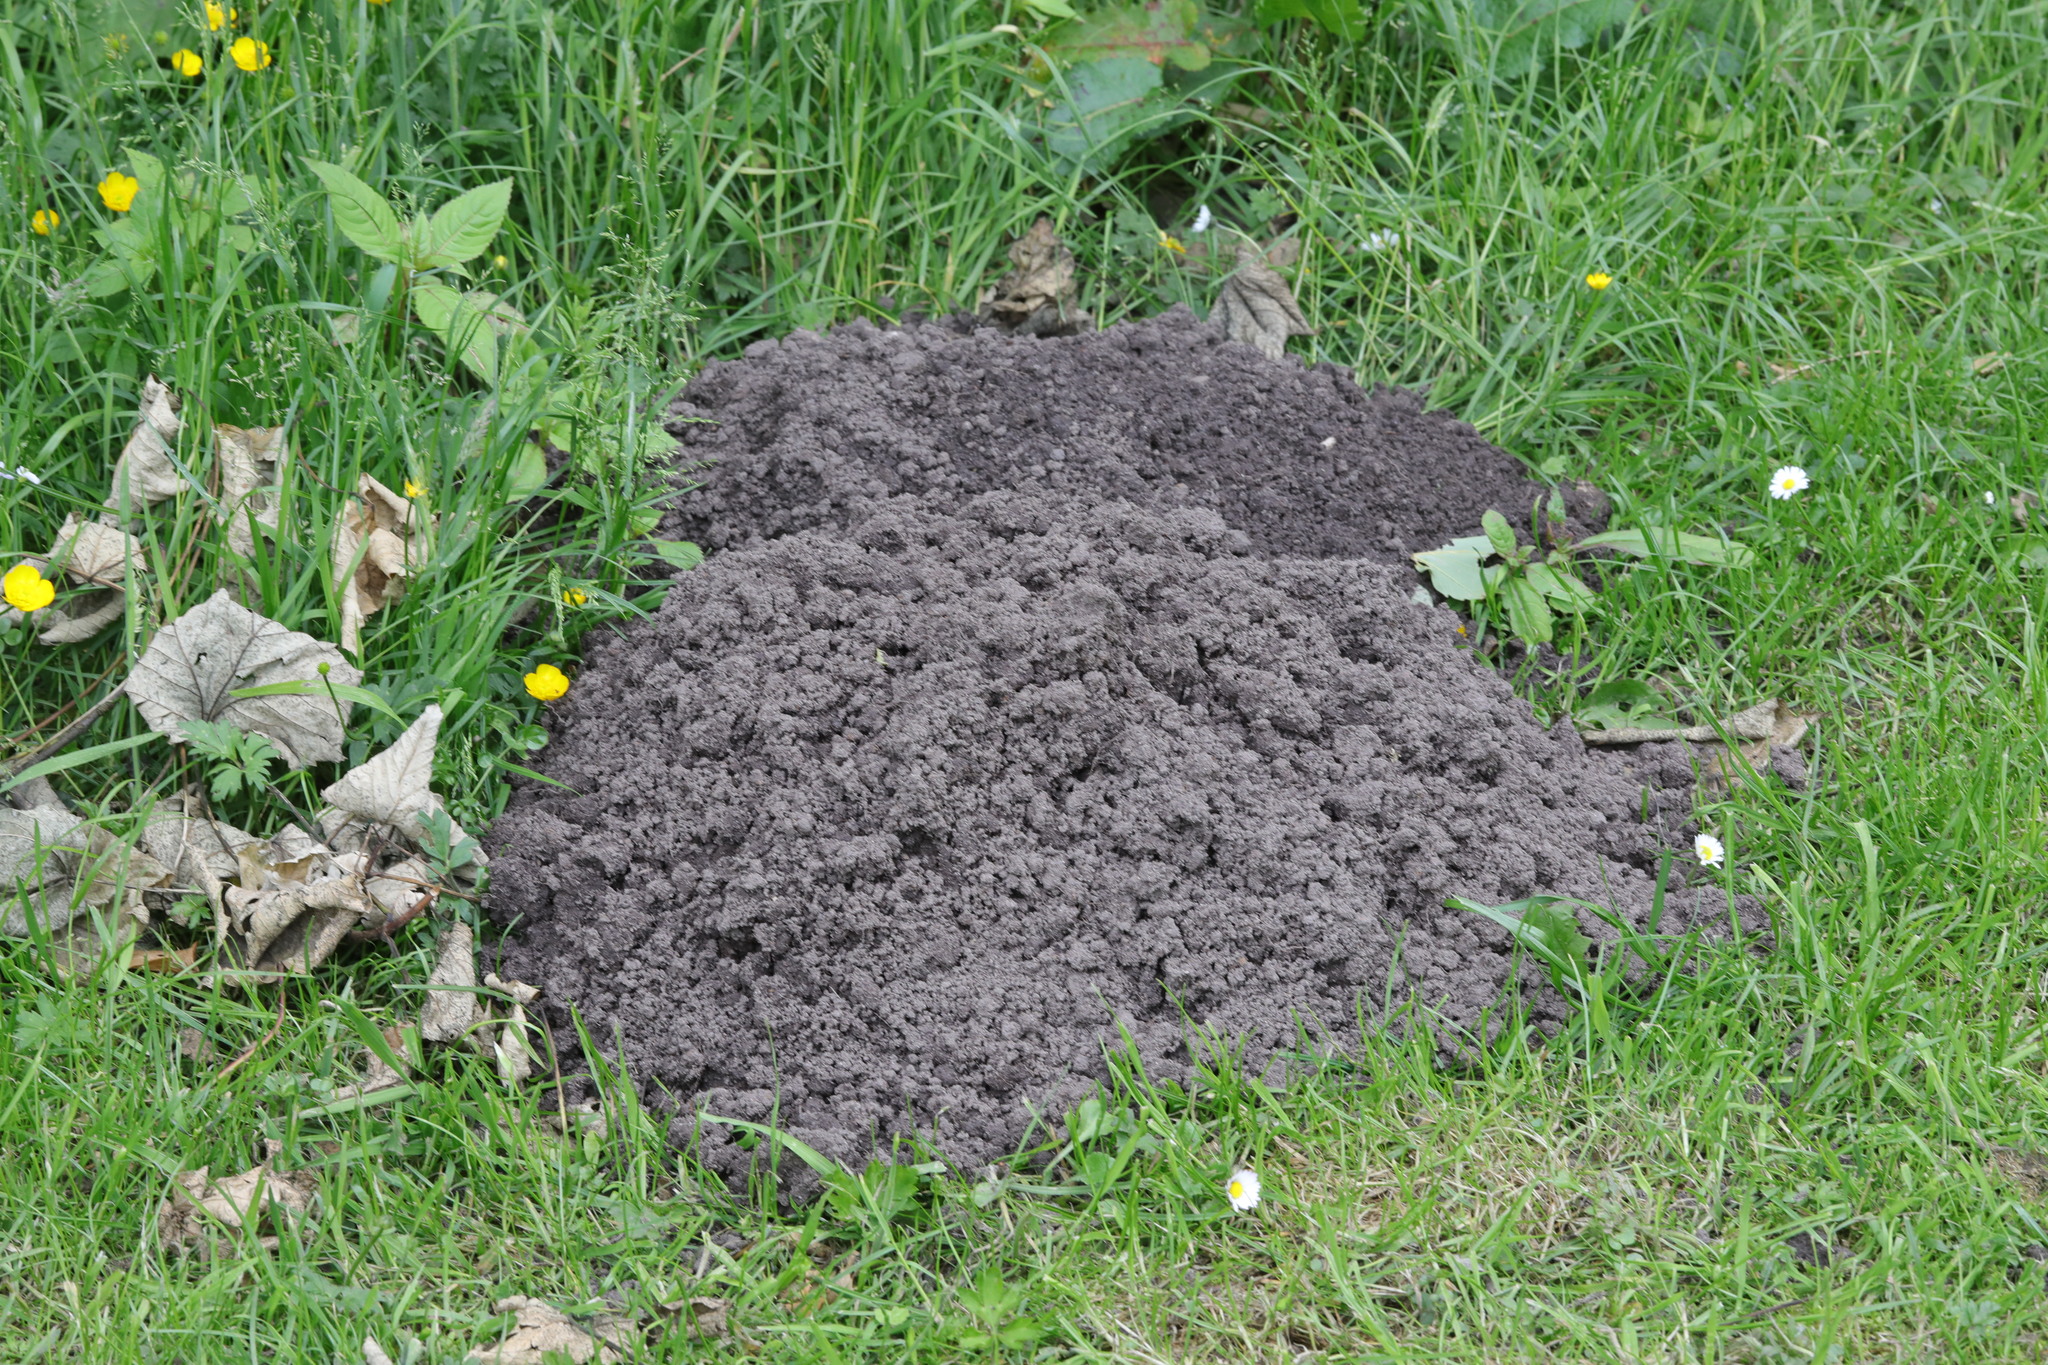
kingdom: Animalia
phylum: Chordata
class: Mammalia
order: Soricomorpha
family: Talpidae
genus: Talpa
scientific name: Talpa europaea
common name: European mole
